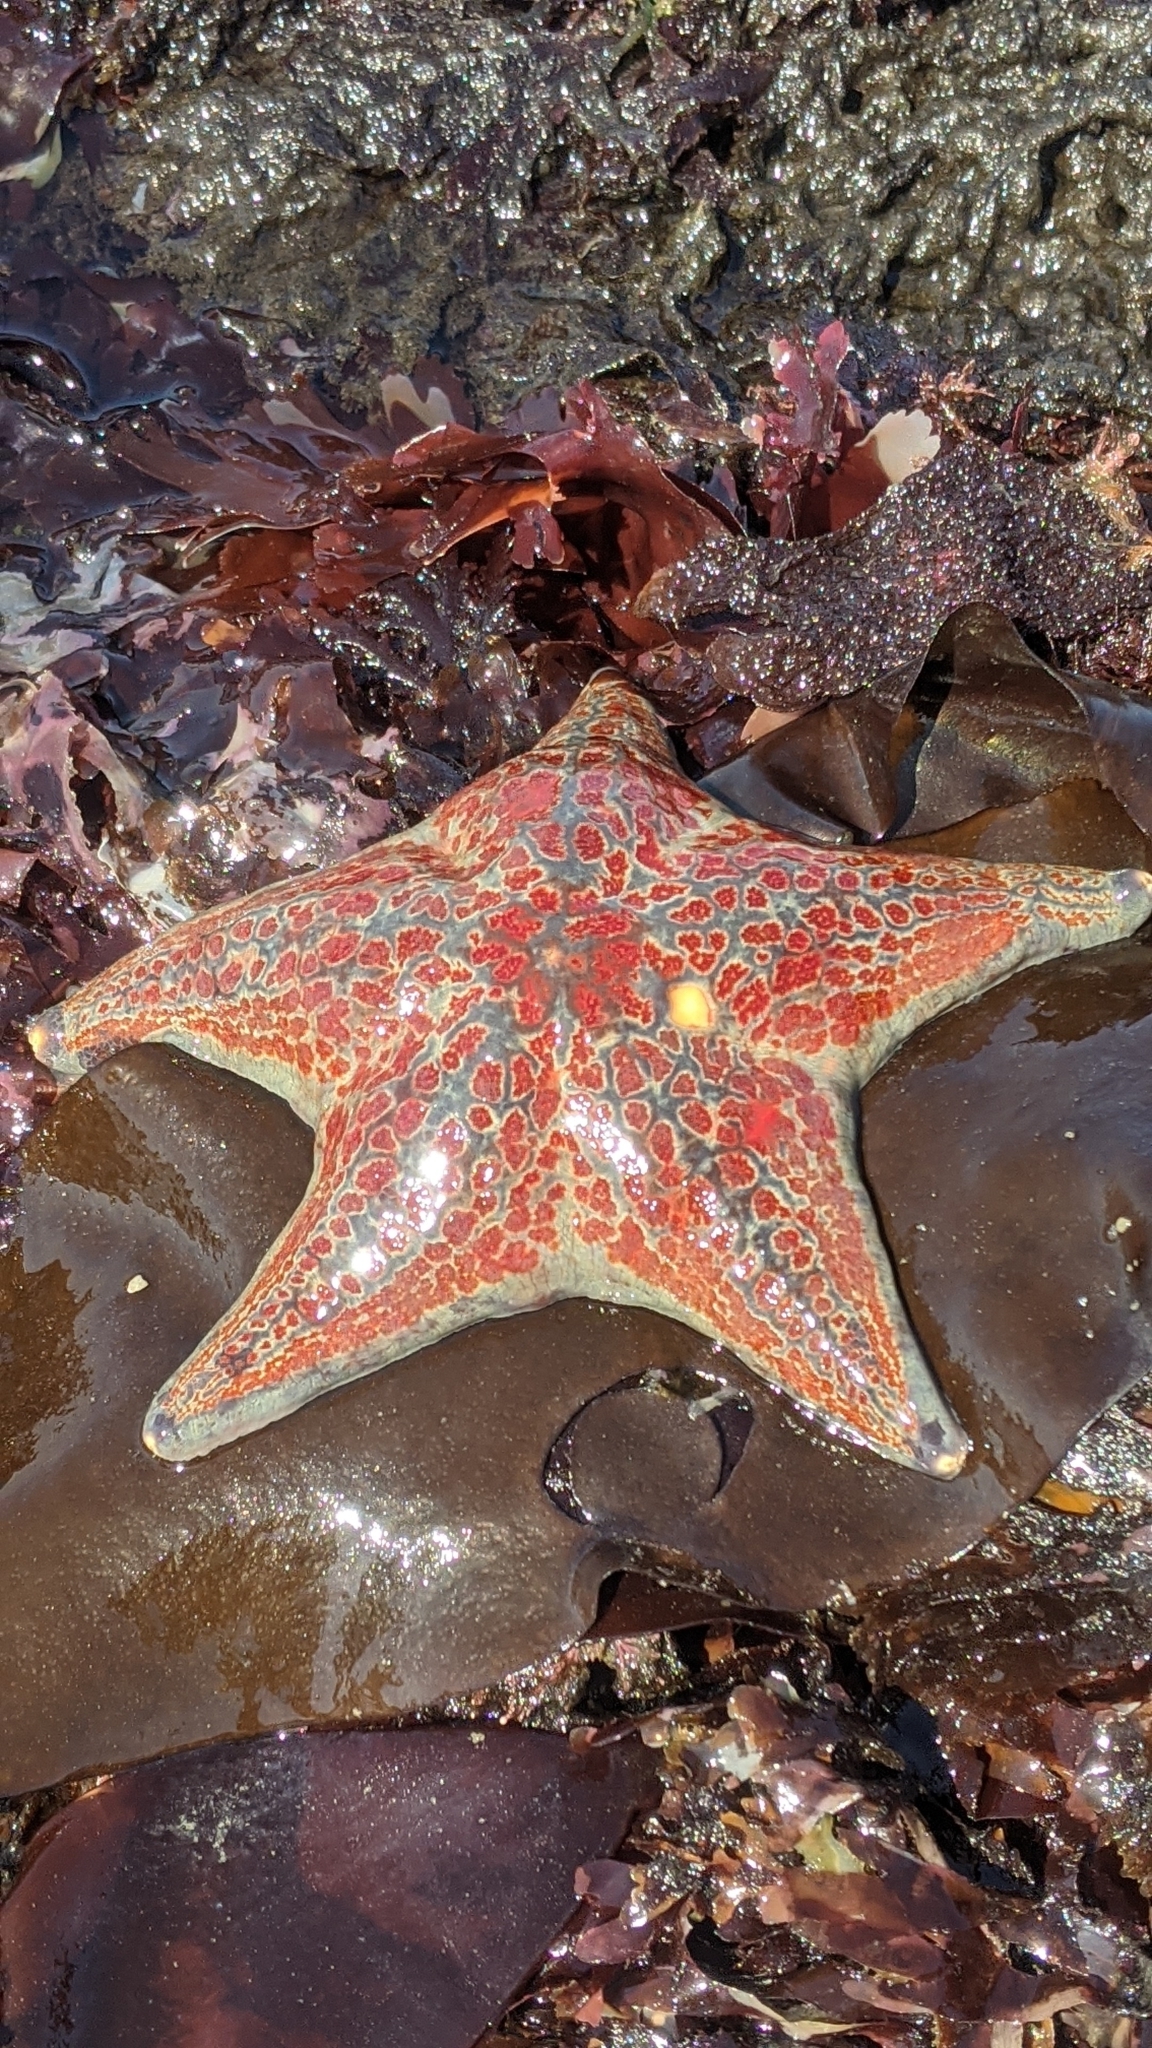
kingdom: Animalia
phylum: Echinodermata
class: Asteroidea
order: Valvatida
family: Asteropseidae
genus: Dermasterias
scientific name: Dermasterias imbricata
